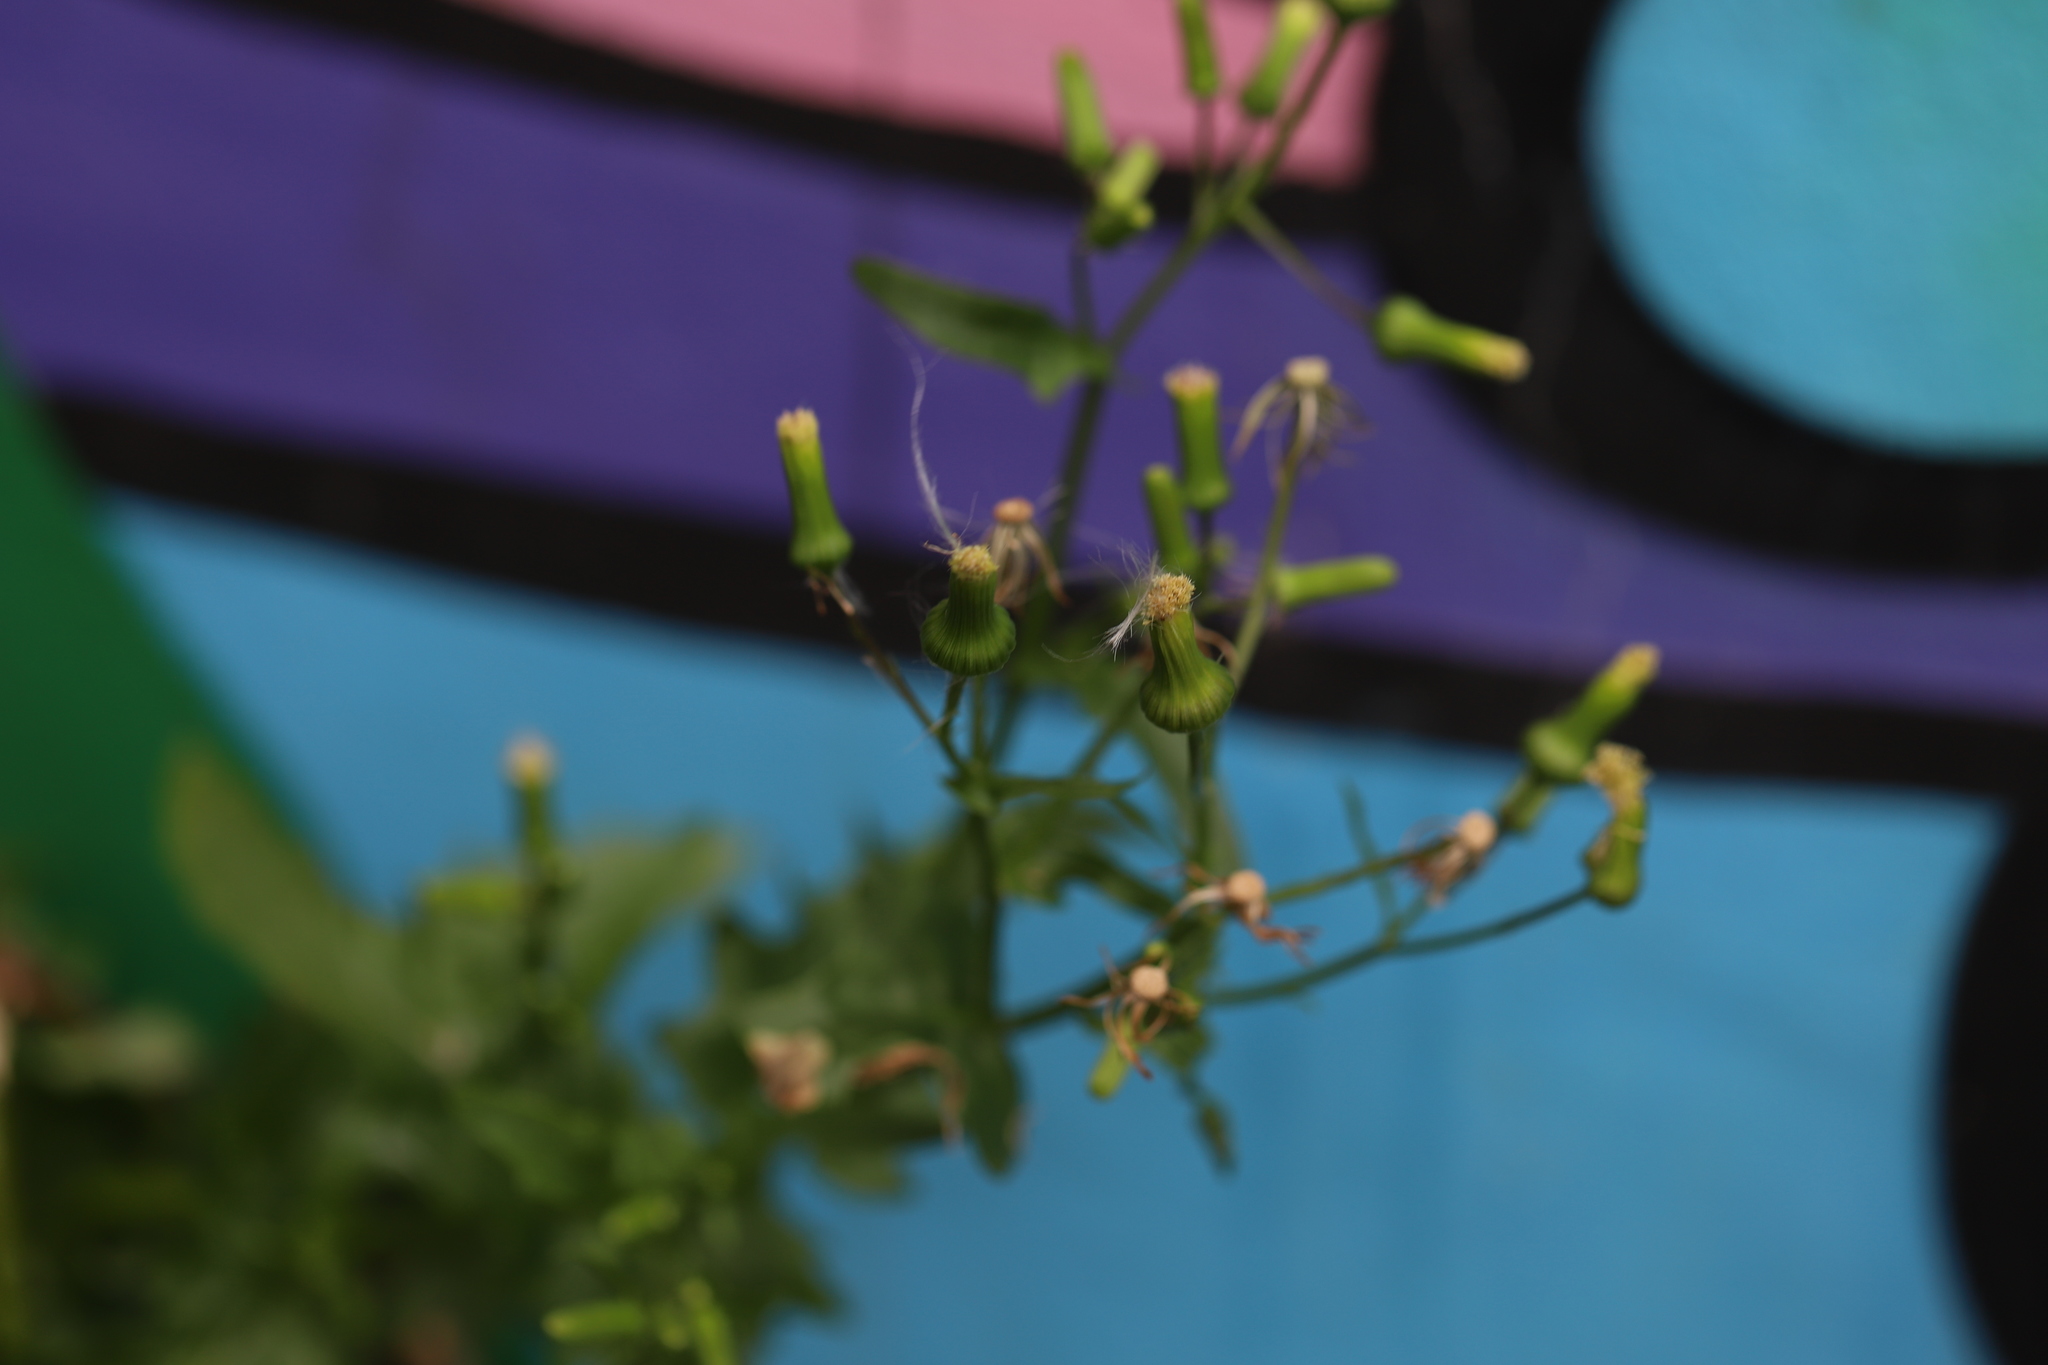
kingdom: Plantae
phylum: Tracheophyta
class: Magnoliopsida
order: Asterales
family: Asteraceae
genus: Erechtites
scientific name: Erechtites hieraciifolius
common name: American burnweed
